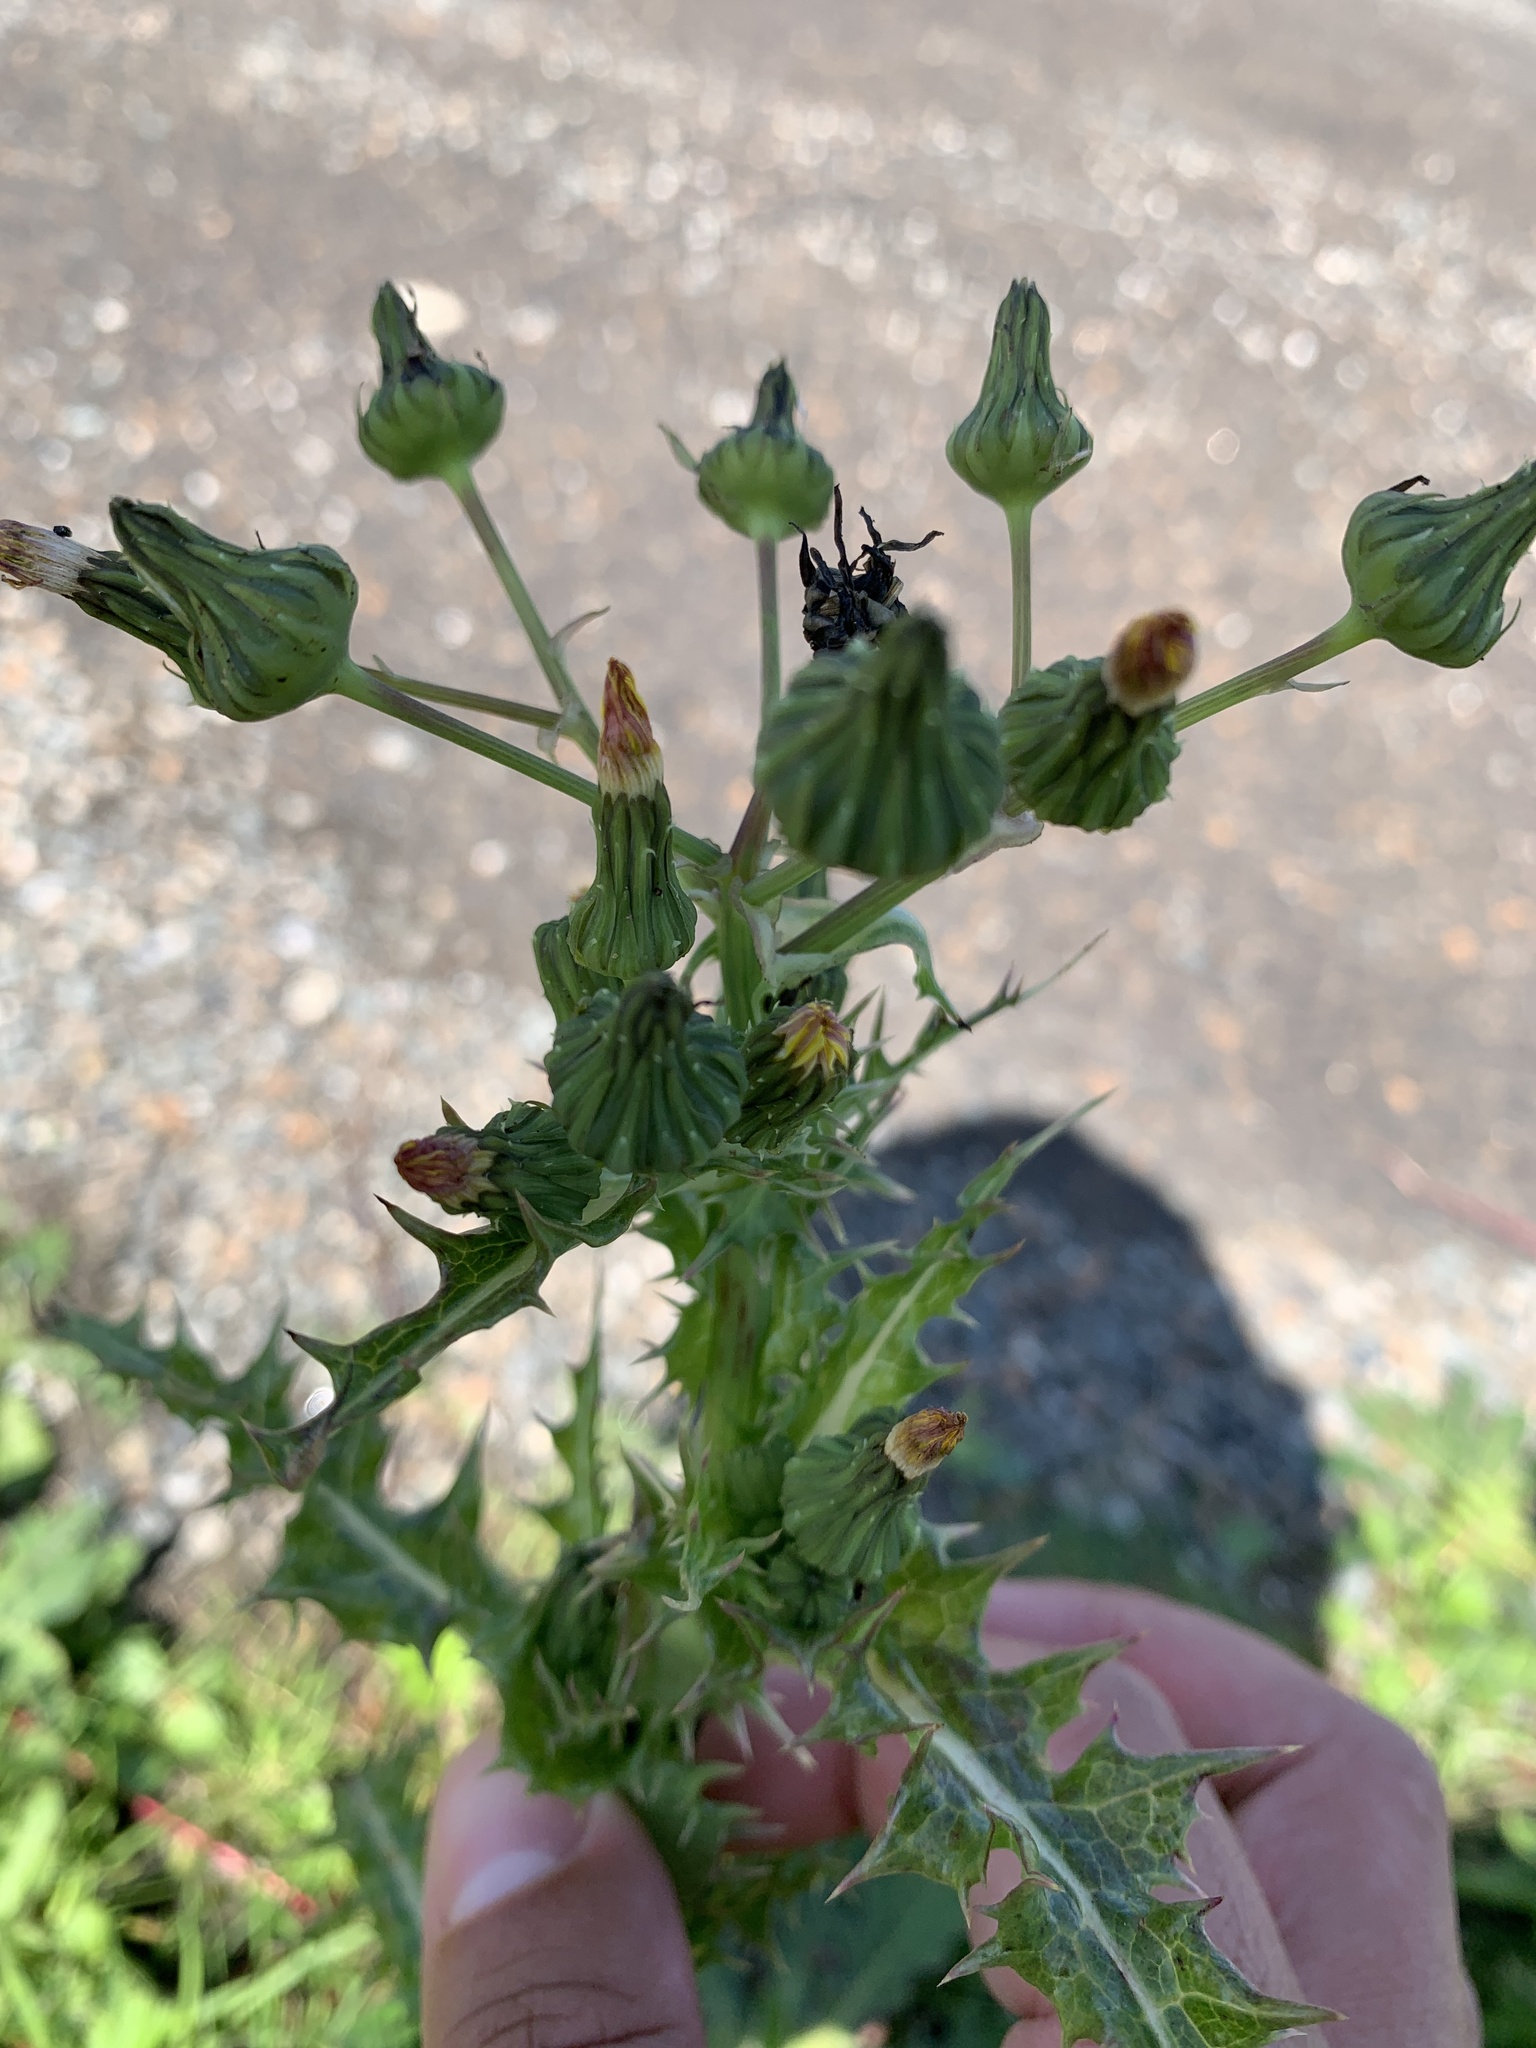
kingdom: Plantae
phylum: Tracheophyta
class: Magnoliopsida
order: Asterales
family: Asteraceae
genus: Sonchus
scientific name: Sonchus asper
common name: Prickly sow-thistle
